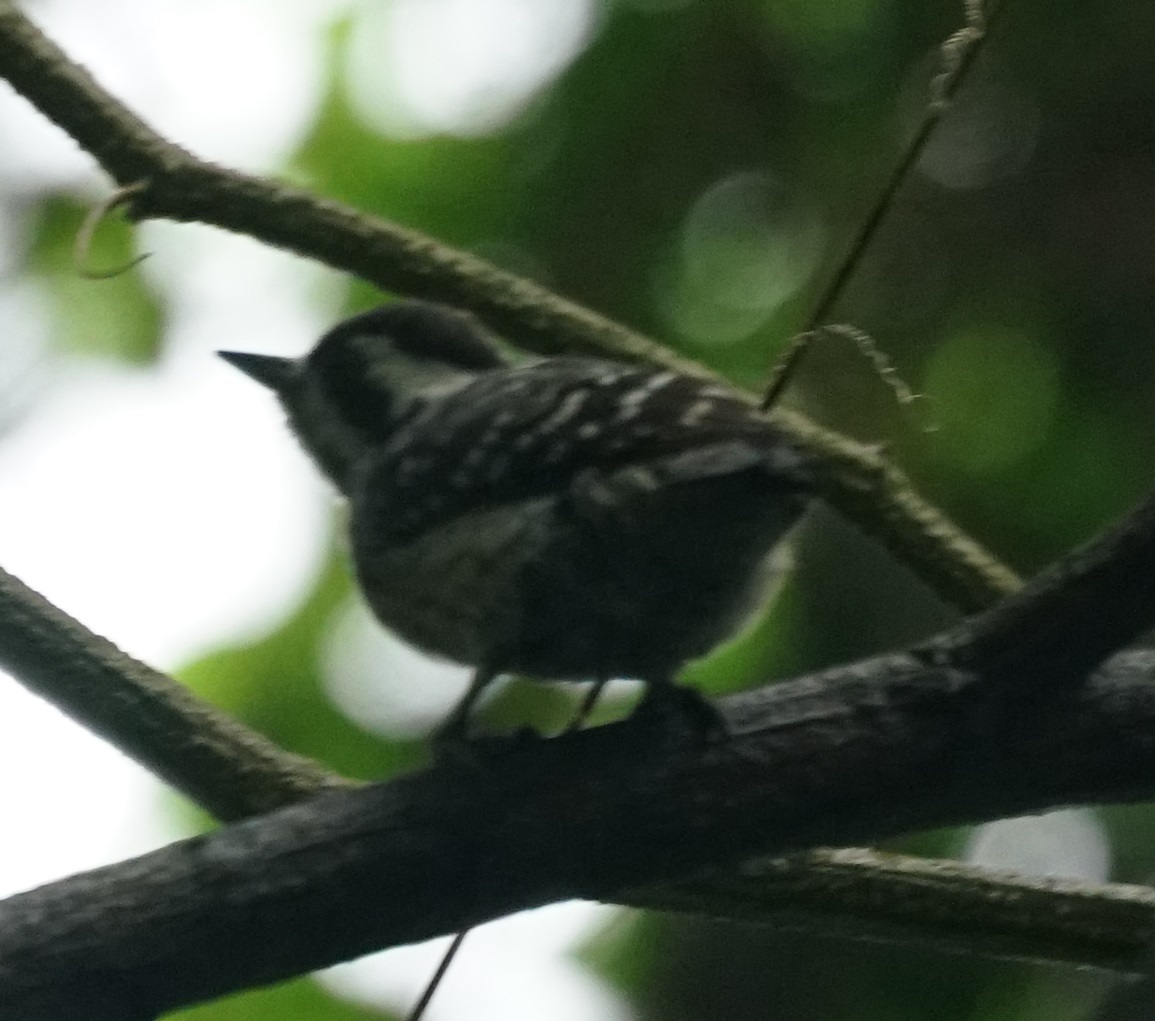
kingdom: Animalia
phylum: Chordata
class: Aves
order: Piciformes
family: Picidae
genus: Yungipicus
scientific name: Yungipicus moluccensis
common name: Sunda pygmy woodpecker
